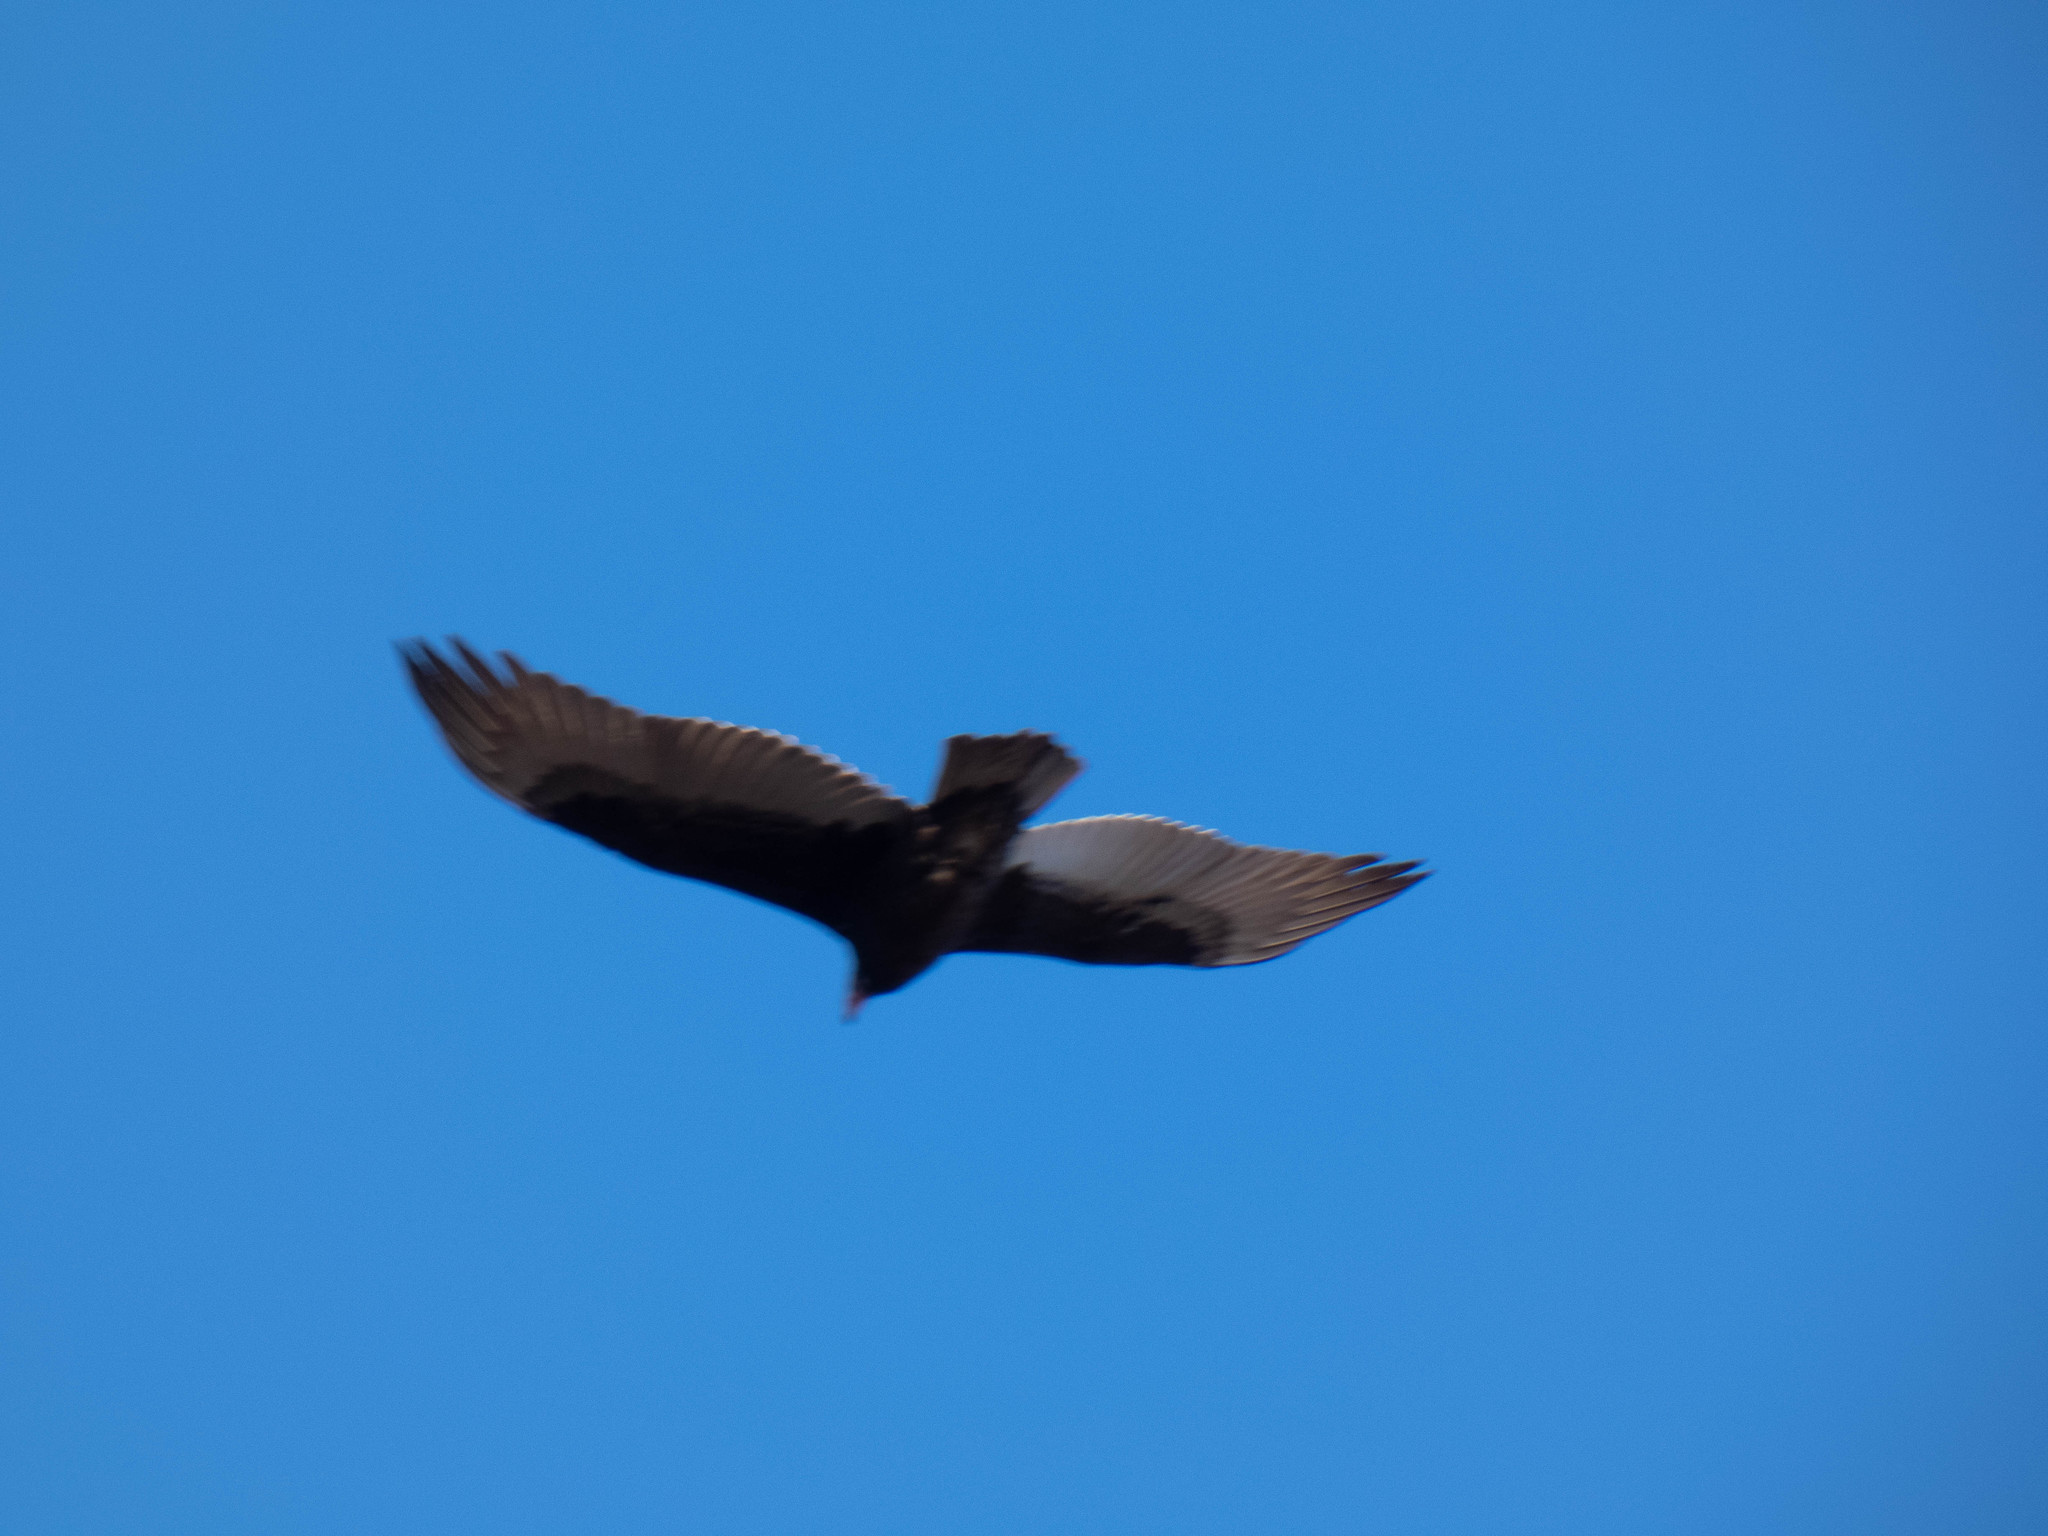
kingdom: Animalia
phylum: Chordata
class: Aves
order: Accipitriformes
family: Cathartidae
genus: Cathartes
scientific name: Cathartes aura
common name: Turkey vulture
